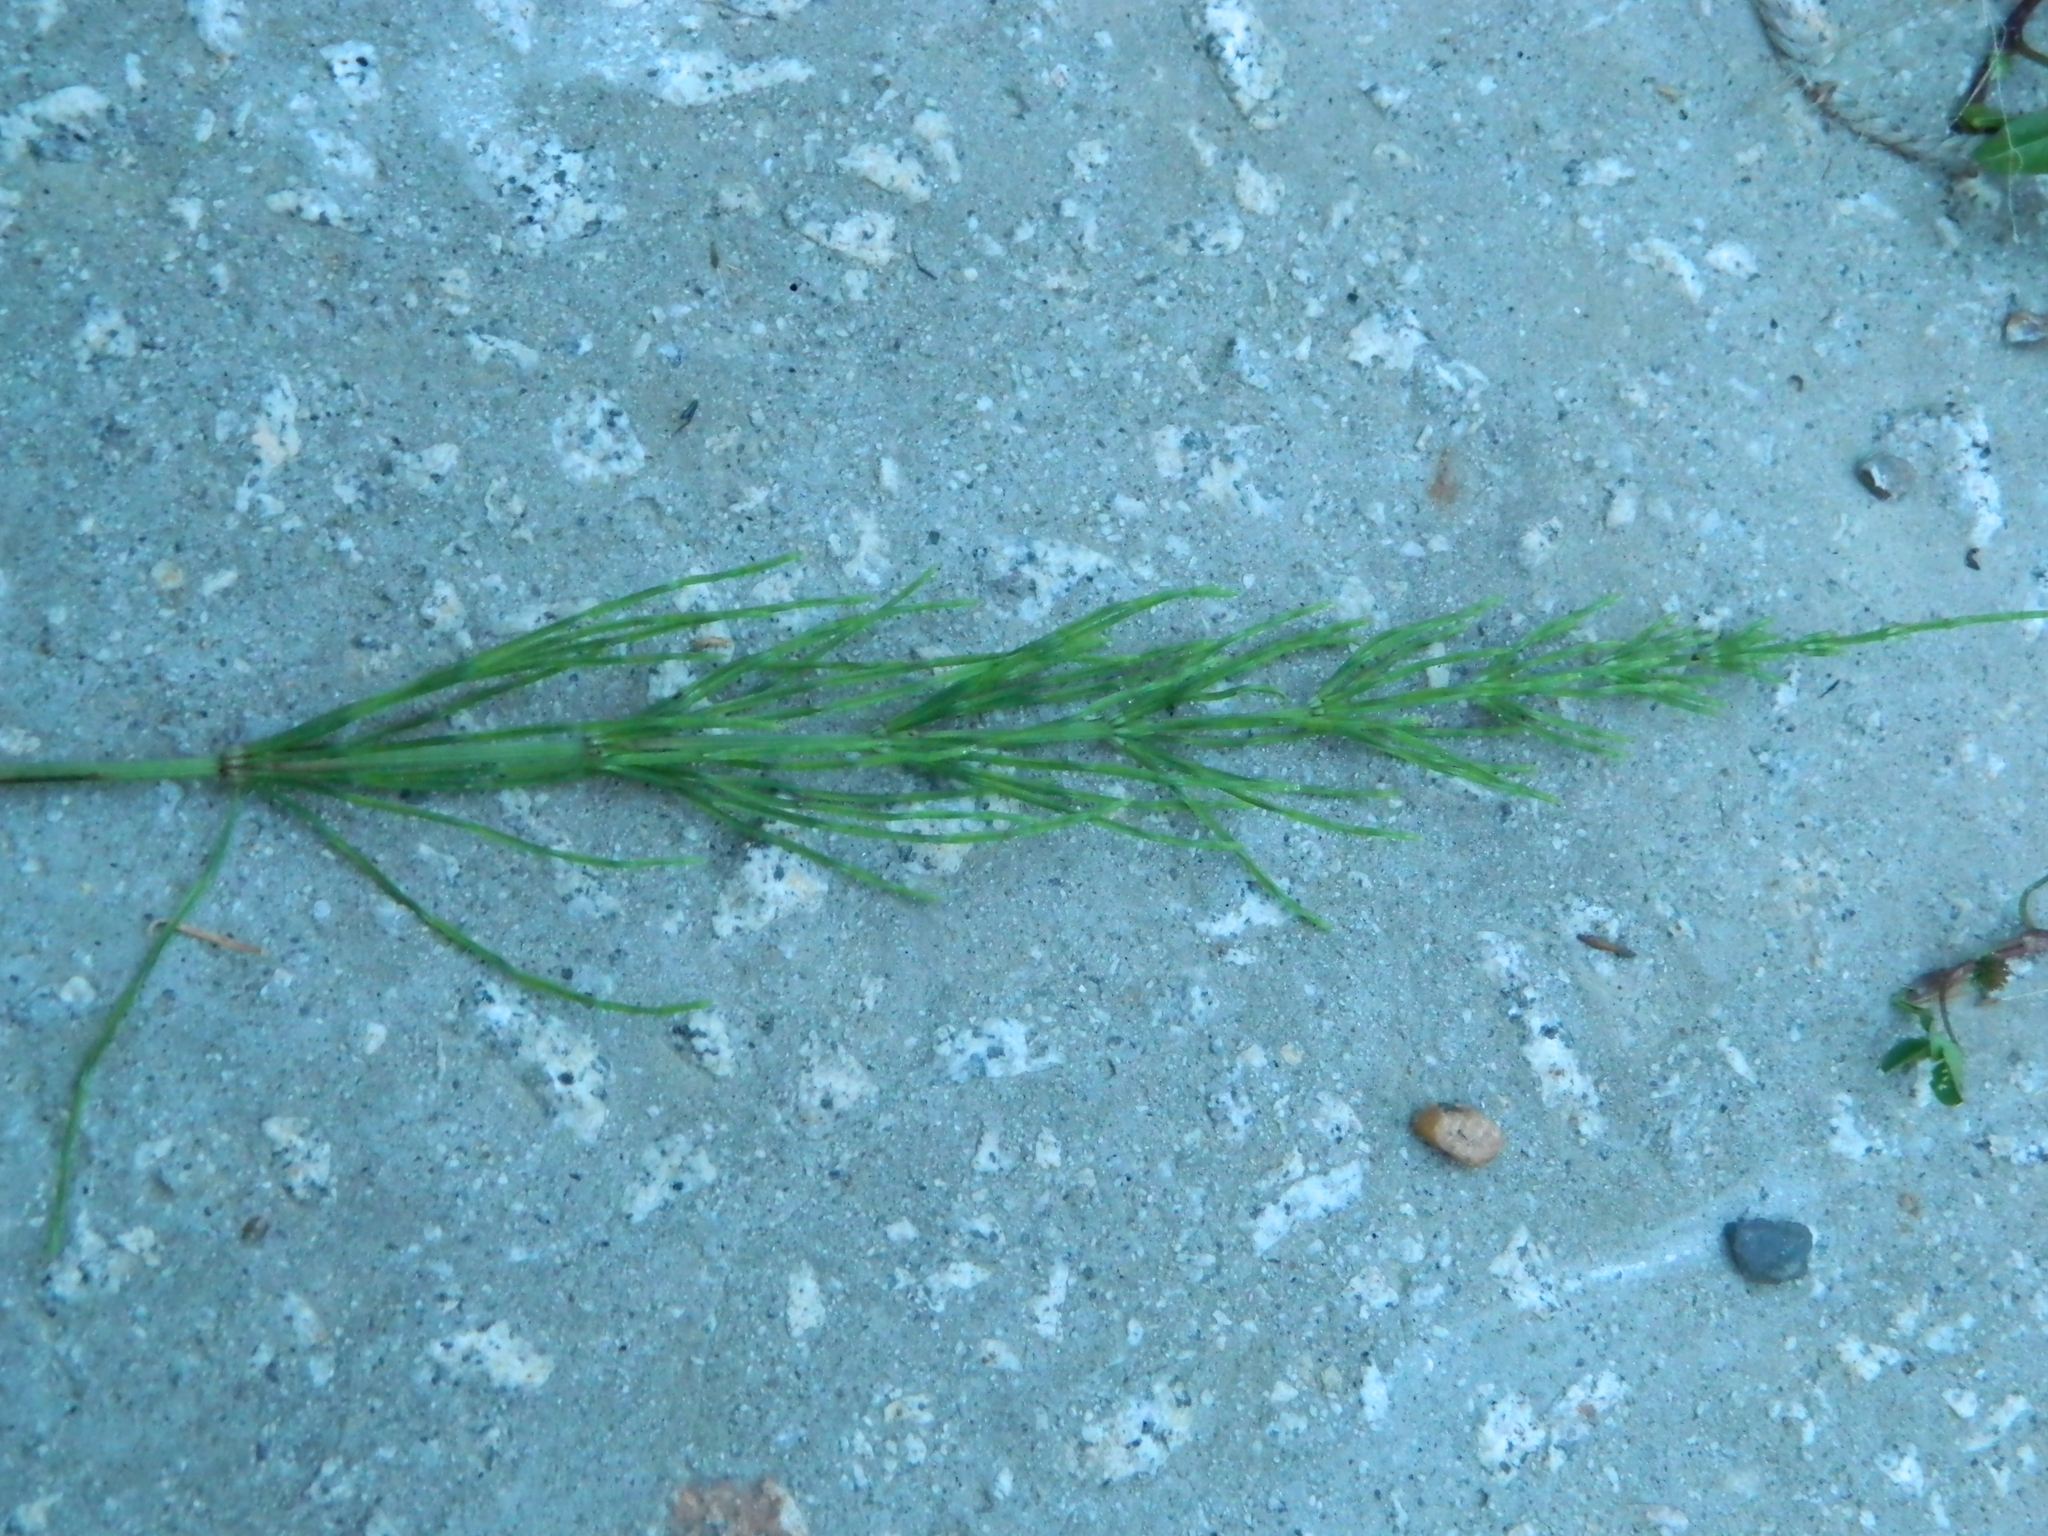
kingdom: Plantae
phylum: Tracheophyta
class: Polypodiopsida
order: Equisetales
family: Equisetaceae
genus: Equisetum
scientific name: Equisetum arvense
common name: Field horsetail
